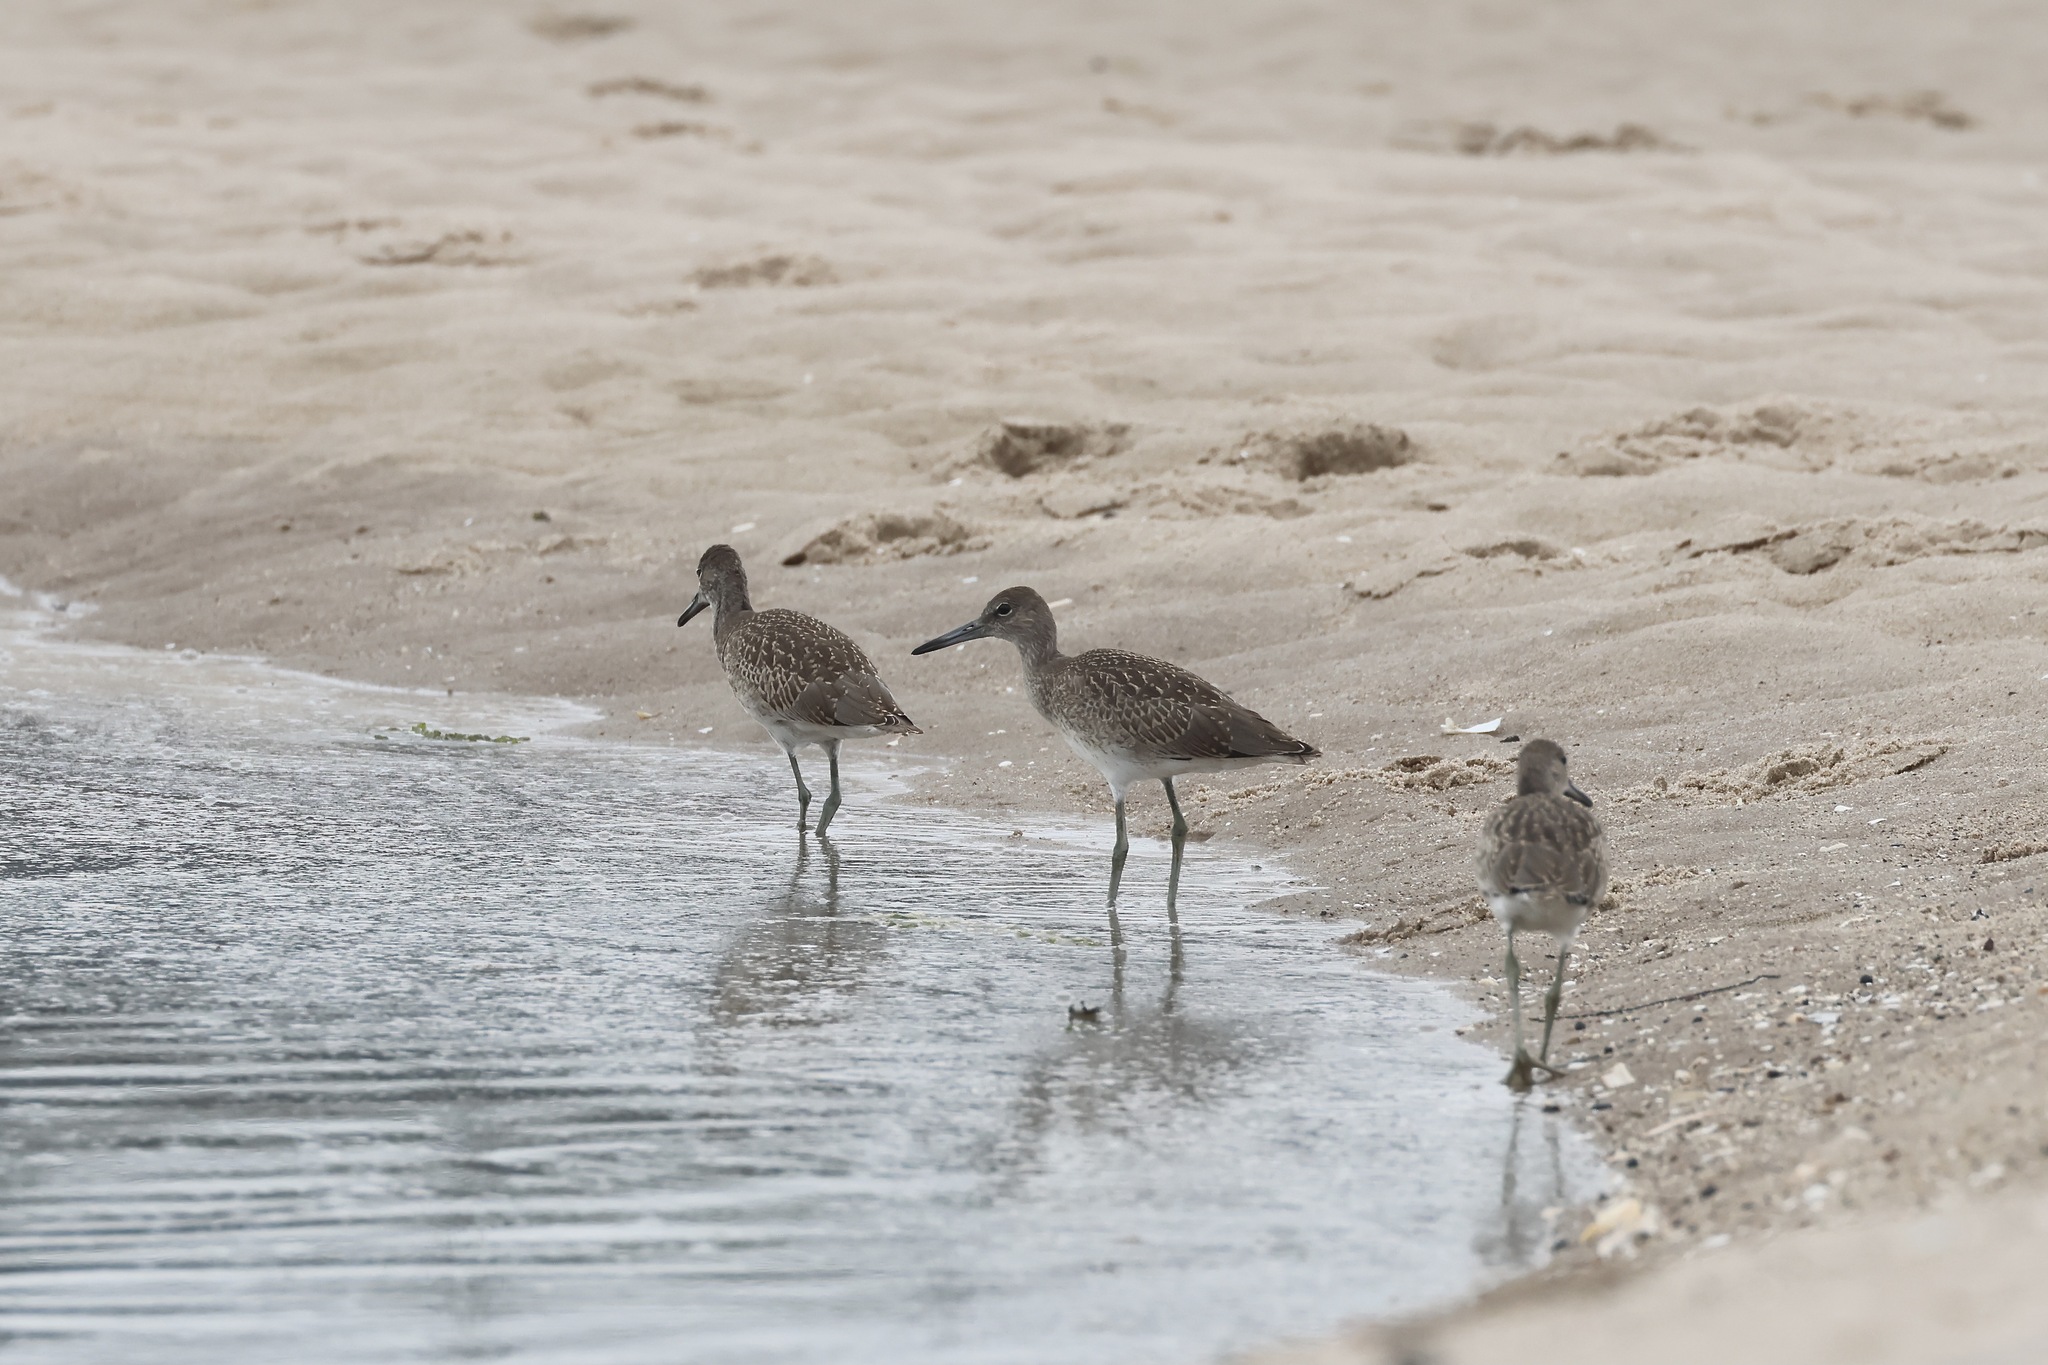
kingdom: Animalia
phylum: Chordata
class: Aves
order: Charadriiformes
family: Scolopacidae
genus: Tringa
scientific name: Tringa semipalmata
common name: Willet
